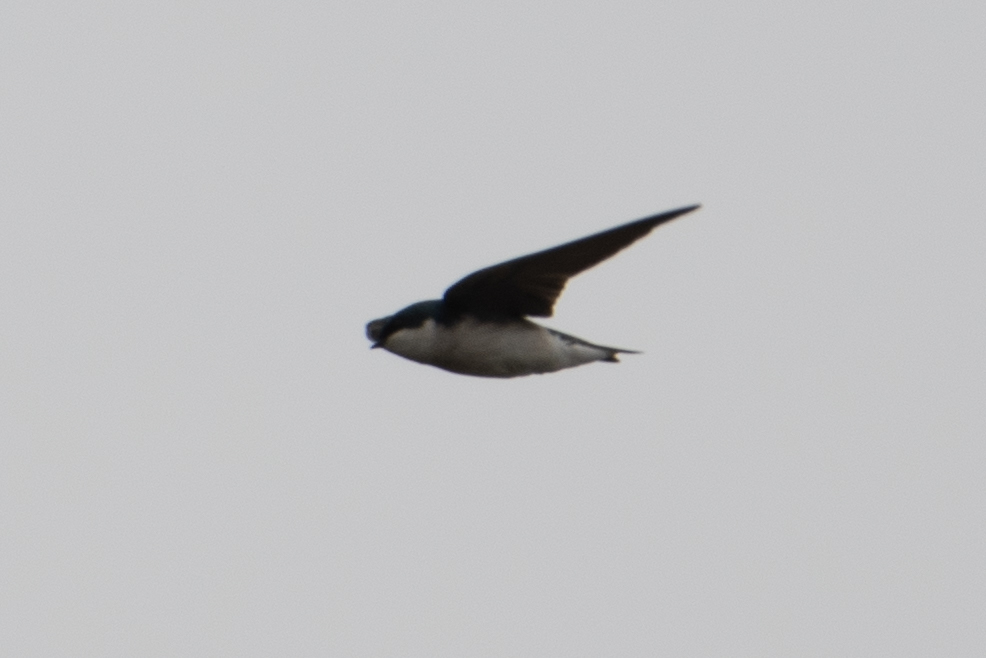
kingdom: Animalia
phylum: Chordata
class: Aves
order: Passeriformes
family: Hirundinidae
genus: Tachycineta
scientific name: Tachycineta bicolor
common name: Tree swallow
